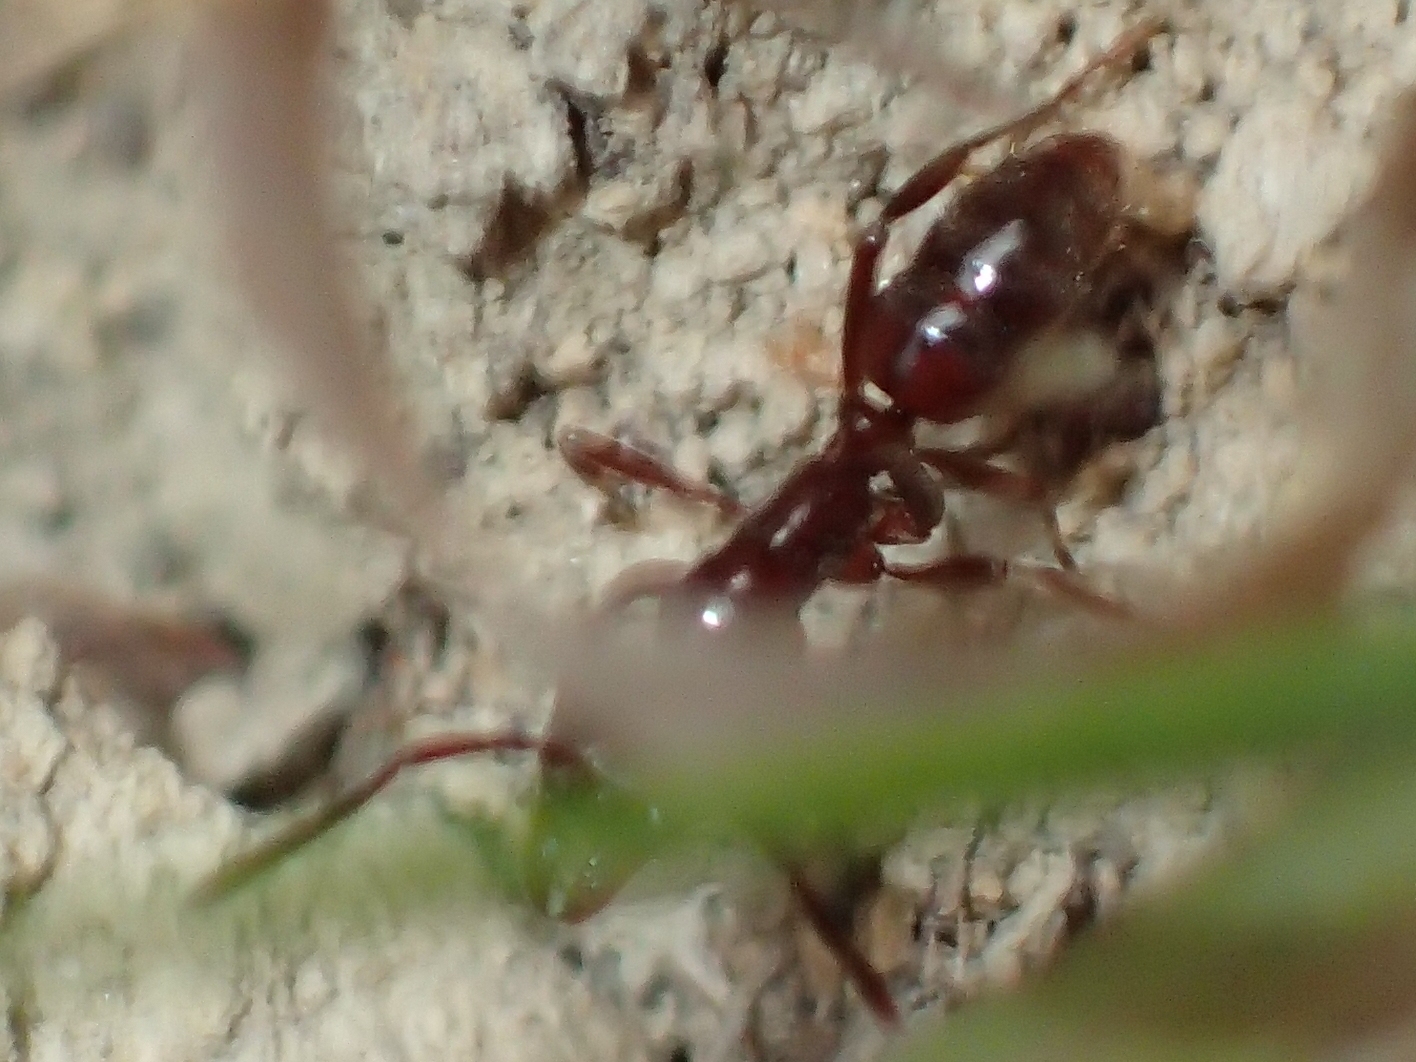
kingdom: Animalia
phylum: Arthropoda
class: Insecta
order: Hymenoptera
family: Formicidae
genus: Austroponera
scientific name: Austroponera
